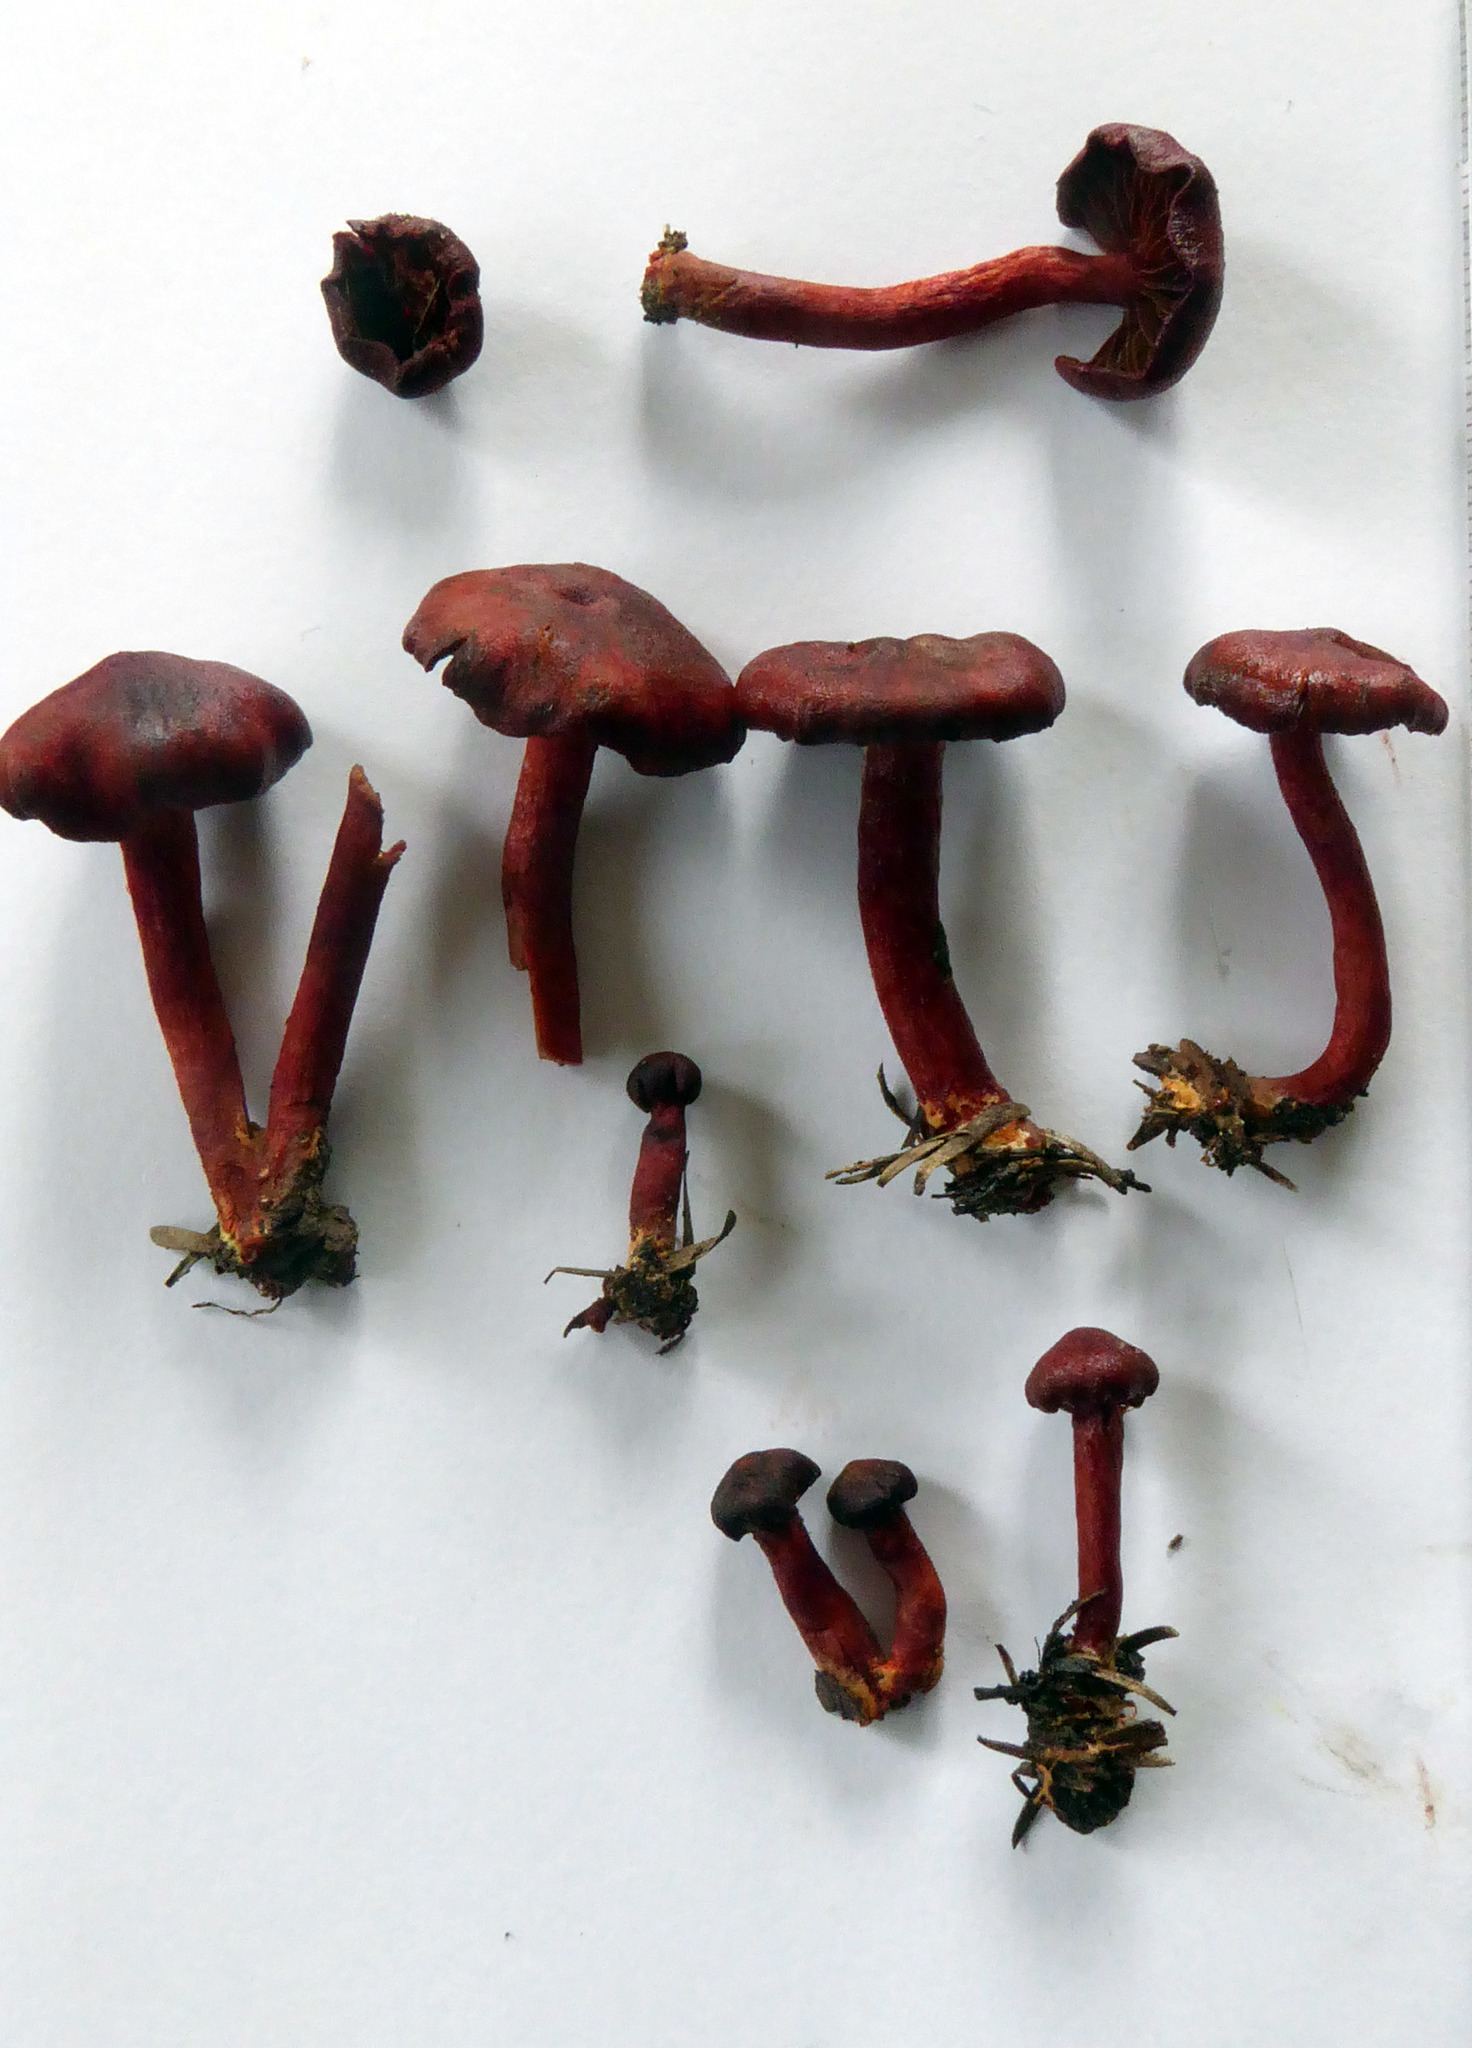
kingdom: Fungi
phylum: Basidiomycota
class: Agaricomycetes
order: Agaricales
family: Cortinariaceae
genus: Cortinarius
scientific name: Cortinarius cruentoides
